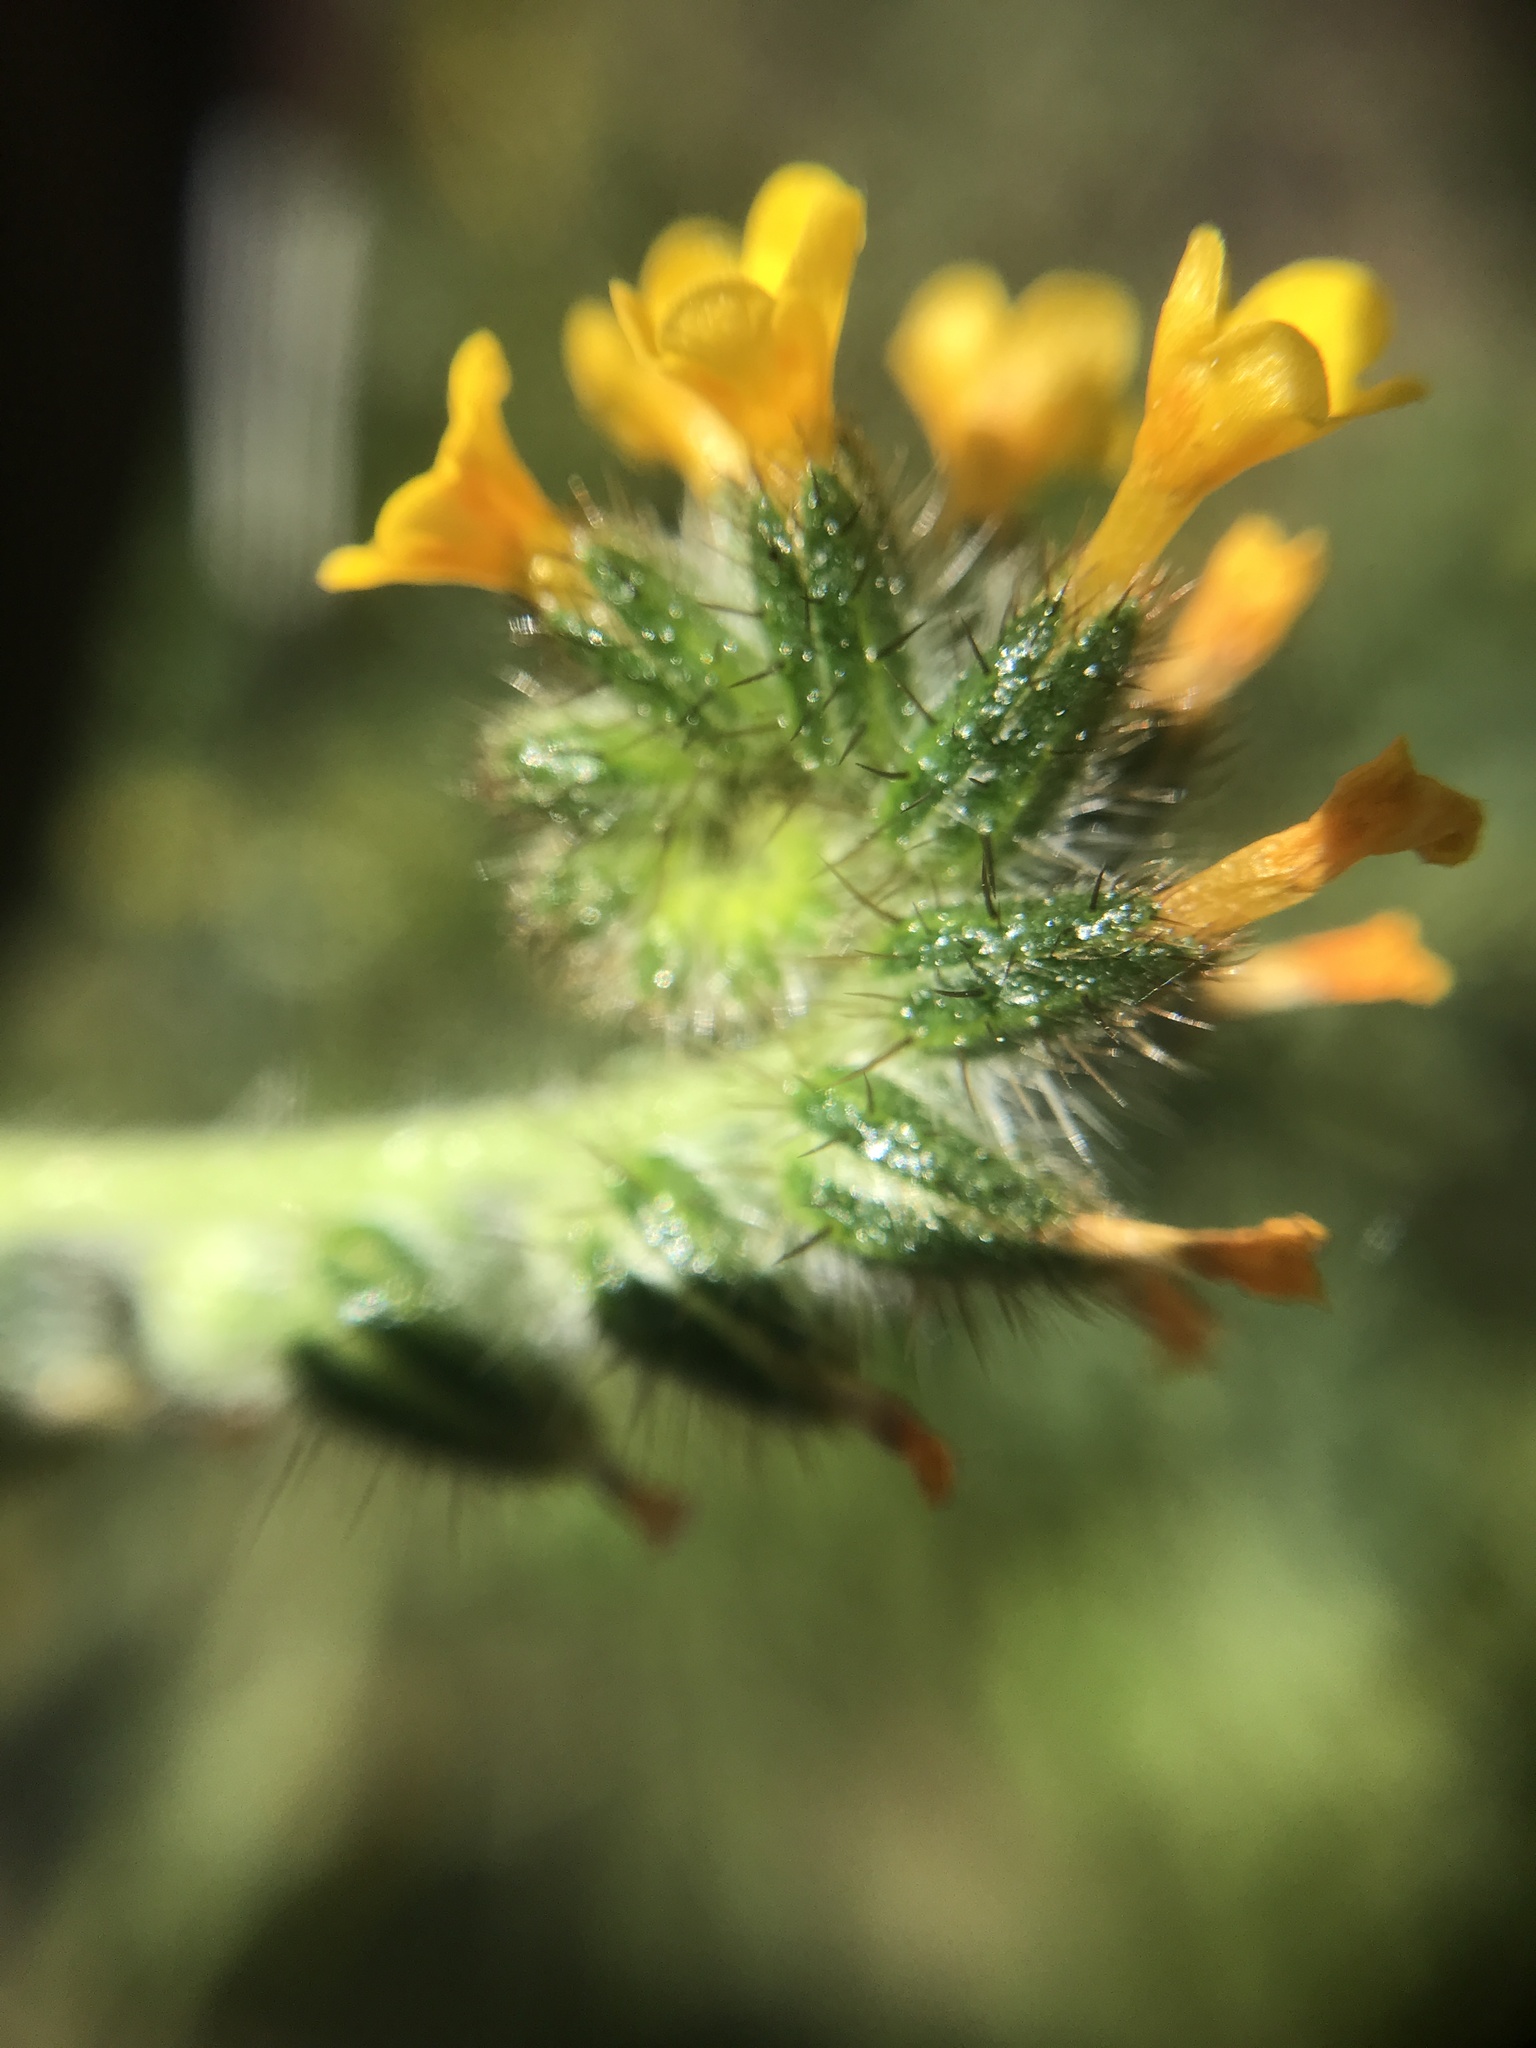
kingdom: Plantae
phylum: Tracheophyta
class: Magnoliopsida
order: Boraginales
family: Boraginaceae
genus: Amsinckia
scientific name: Amsinckia menziesii
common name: Menzies' fiddleneck
